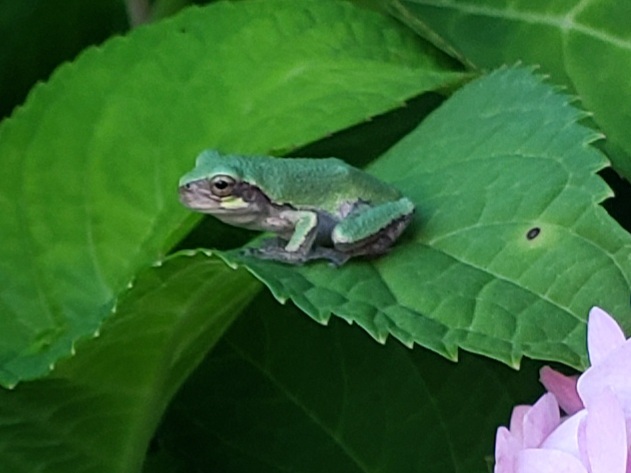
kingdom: Animalia
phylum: Chordata
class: Amphibia
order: Anura
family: Hylidae
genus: Hyla
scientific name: Hyla
